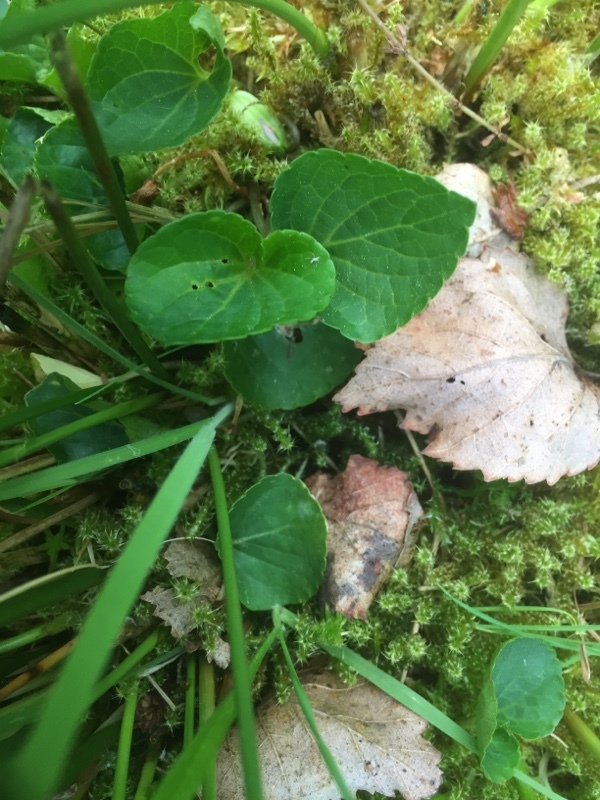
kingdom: Plantae
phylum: Tracheophyta
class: Magnoliopsida
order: Malpighiales
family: Violaceae
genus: Viola
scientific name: Viola palustris
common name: Marsh violet
